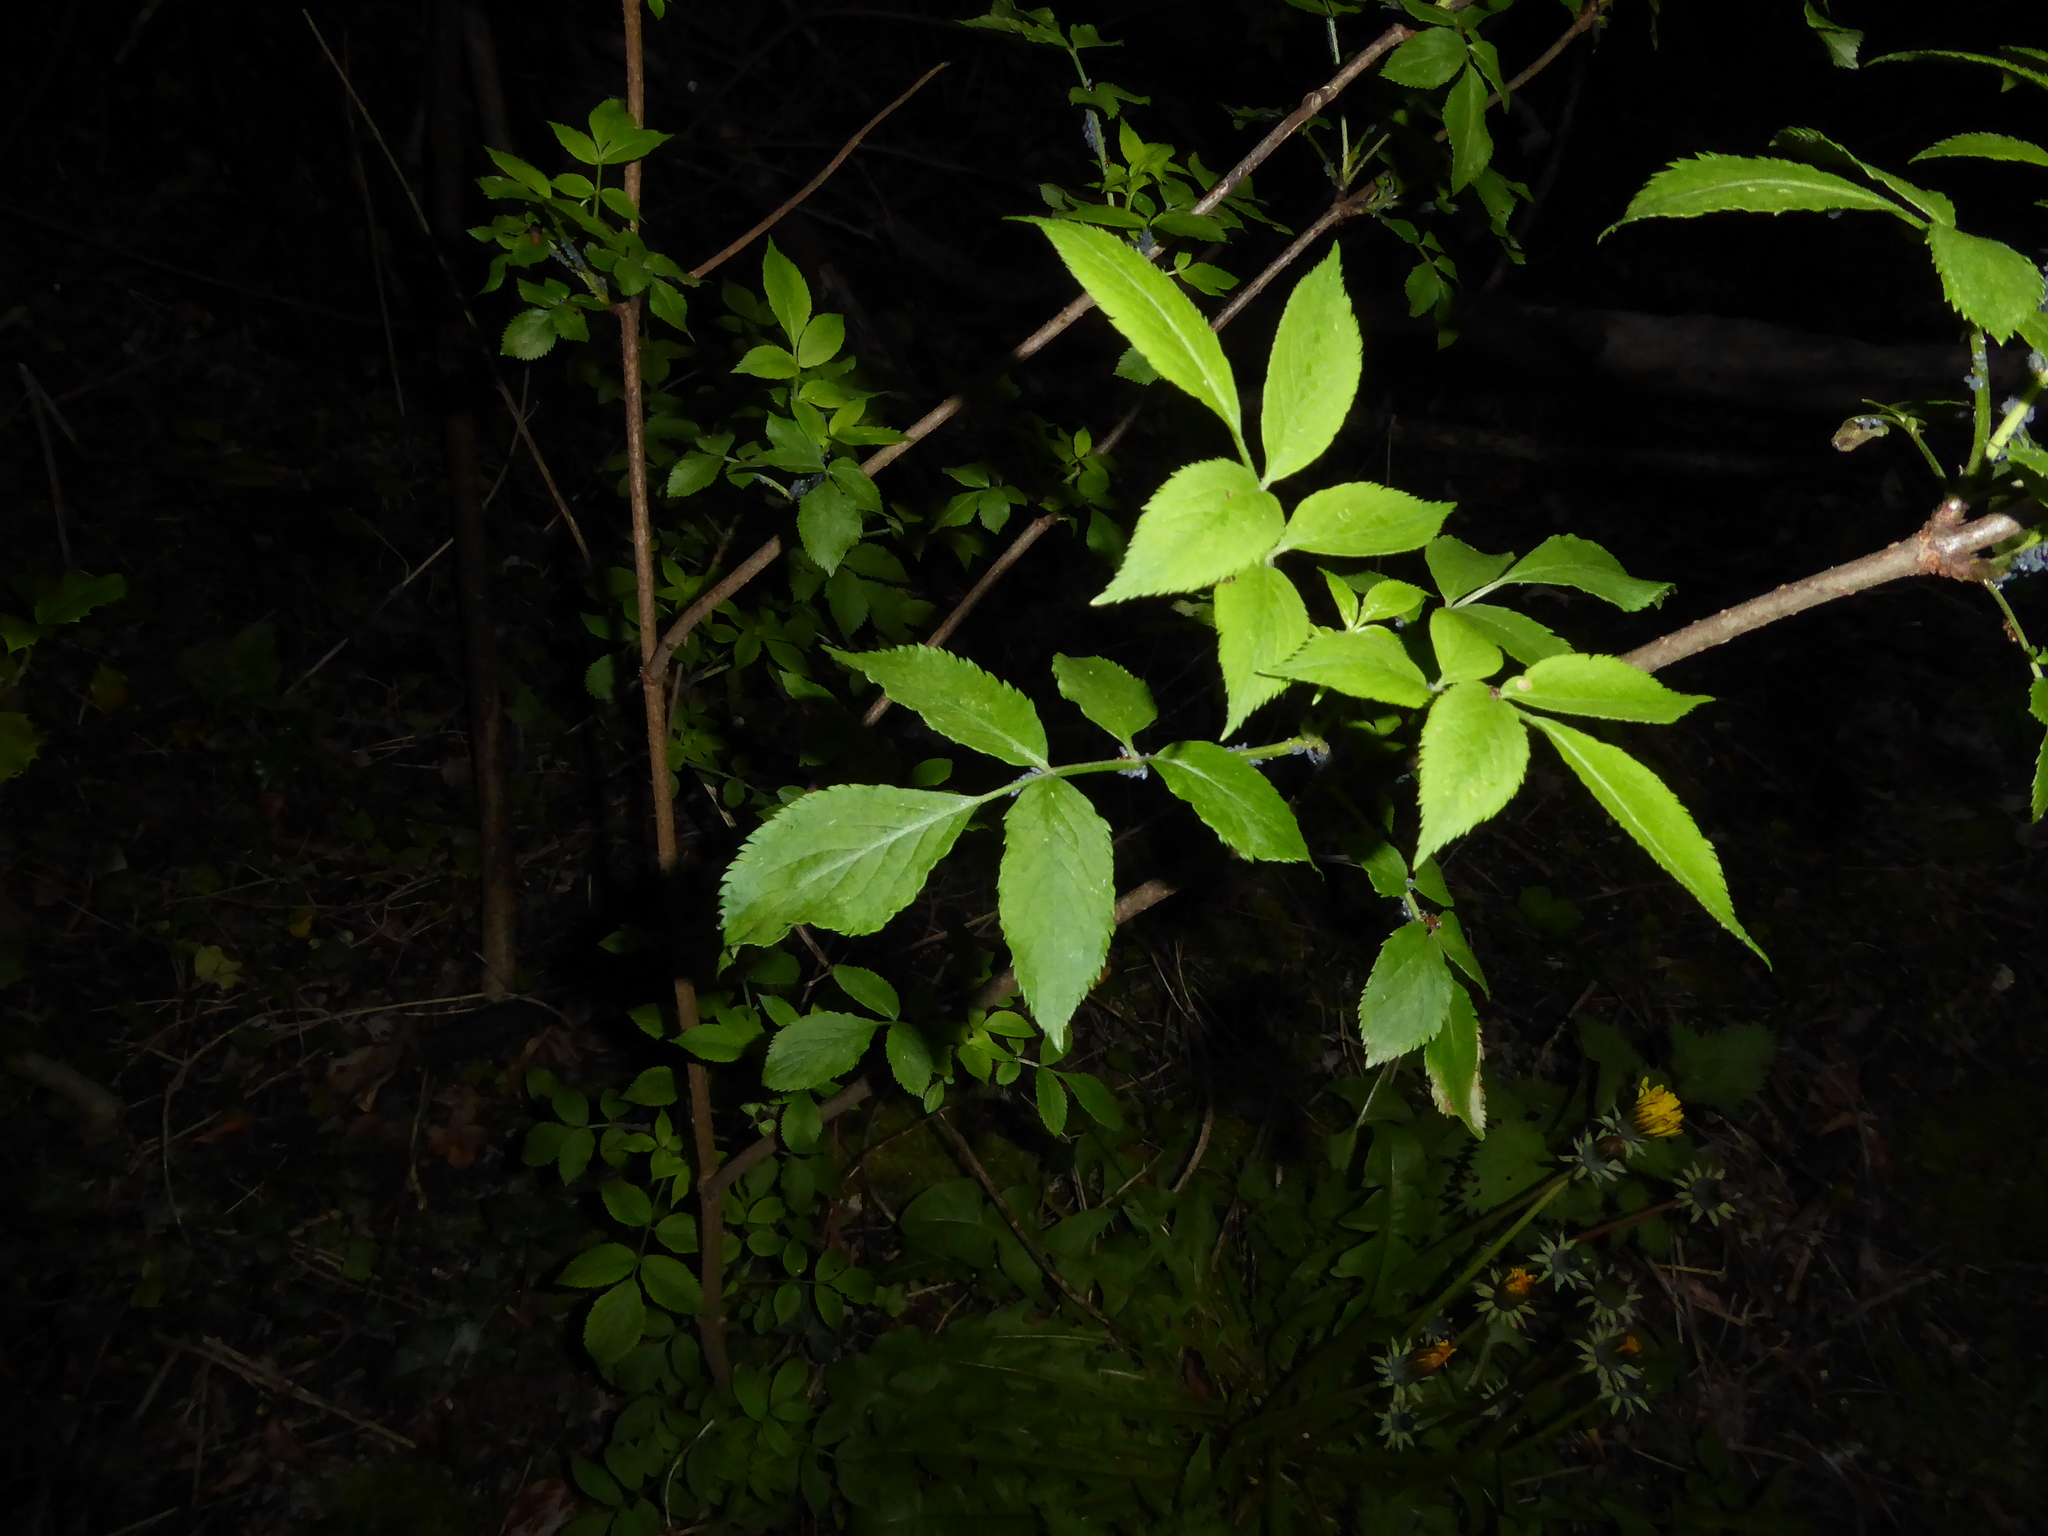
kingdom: Plantae
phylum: Tracheophyta
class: Magnoliopsida
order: Dipsacales
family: Viburnaceae
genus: Sambucus
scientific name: Sambucus nigra
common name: Elder
